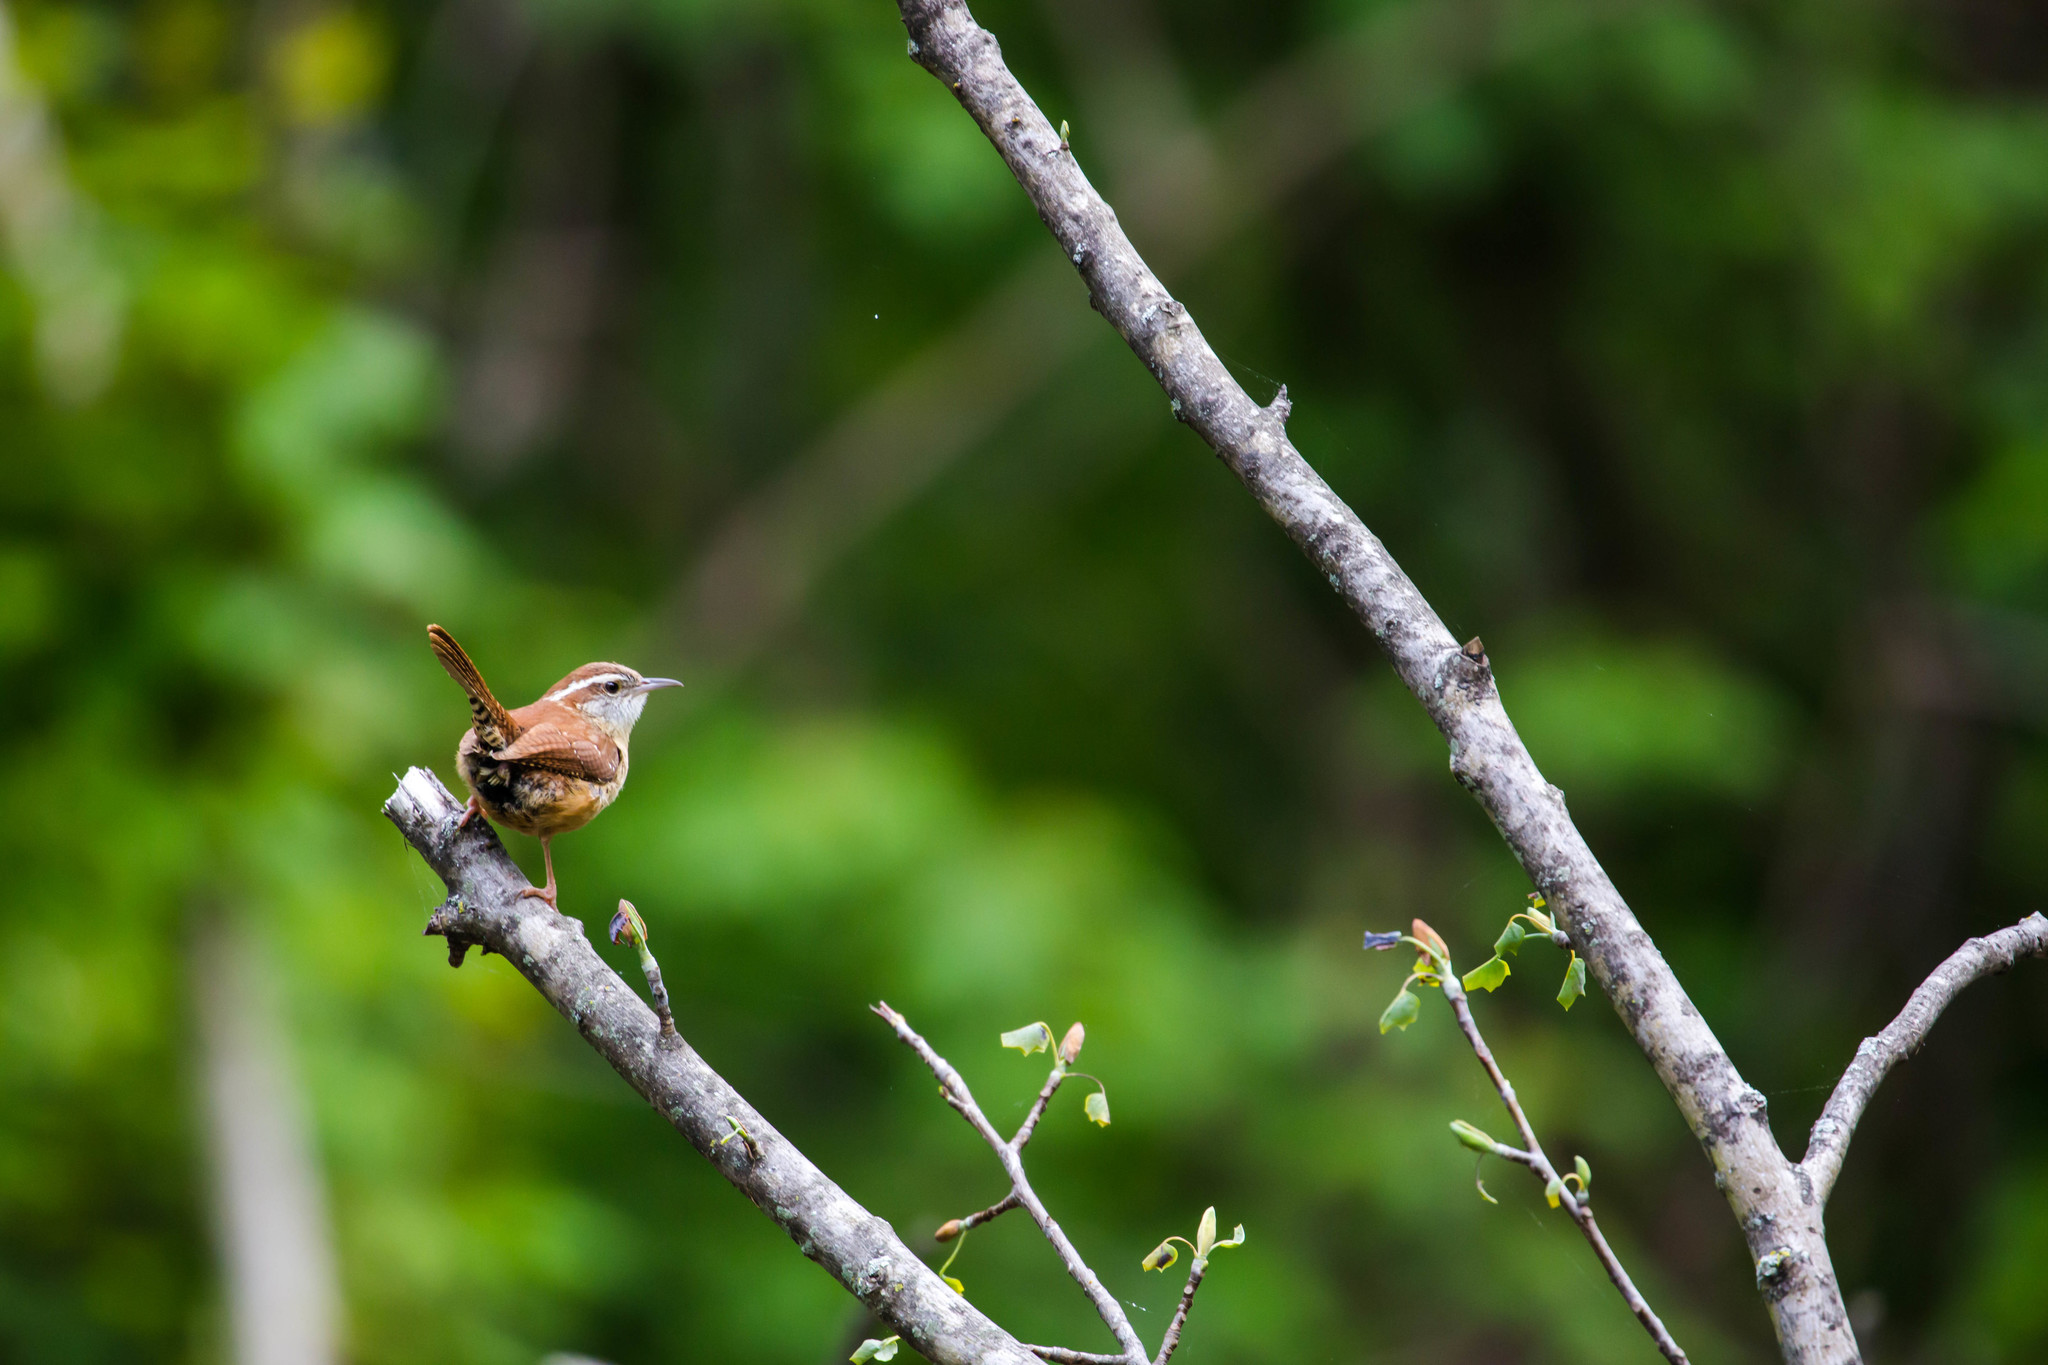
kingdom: Animalia
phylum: Chordata
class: Aves
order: Passeriformes
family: Troglodytidae
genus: Thryothorus
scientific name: Thryothorus ludovicianus
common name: Carolina wren
